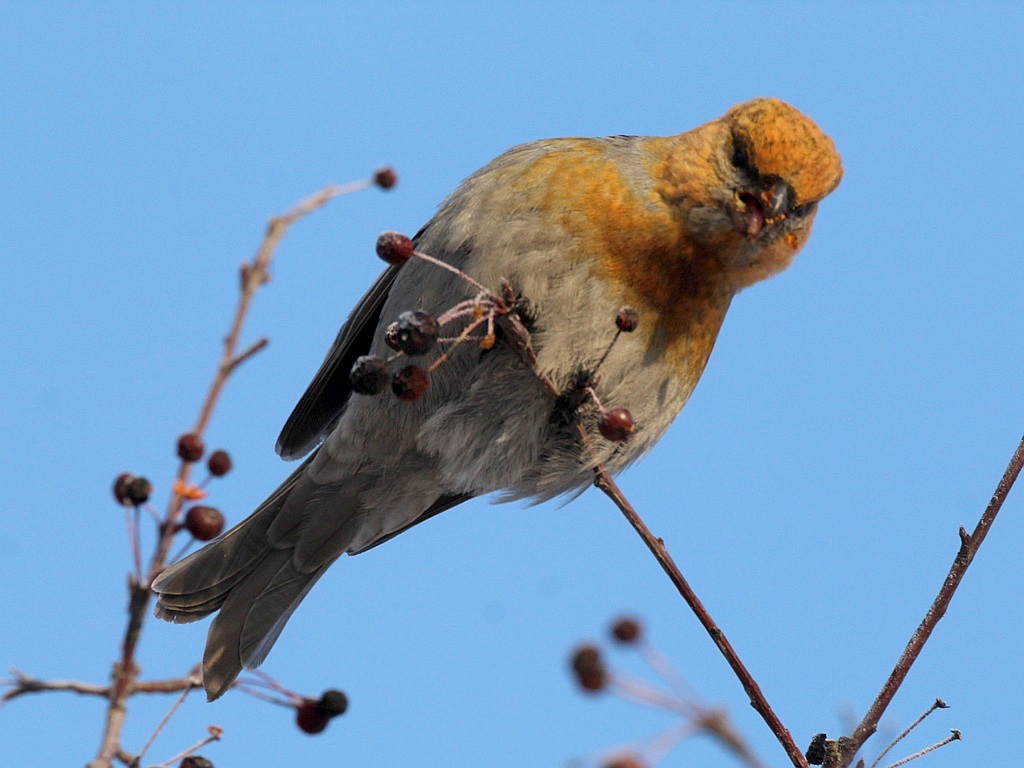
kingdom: Animalia
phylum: Chordata
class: Aves
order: Passeriformes
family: Fringillidae
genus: Pinicola
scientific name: Pinicola enucleator
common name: Pine grosbeak
